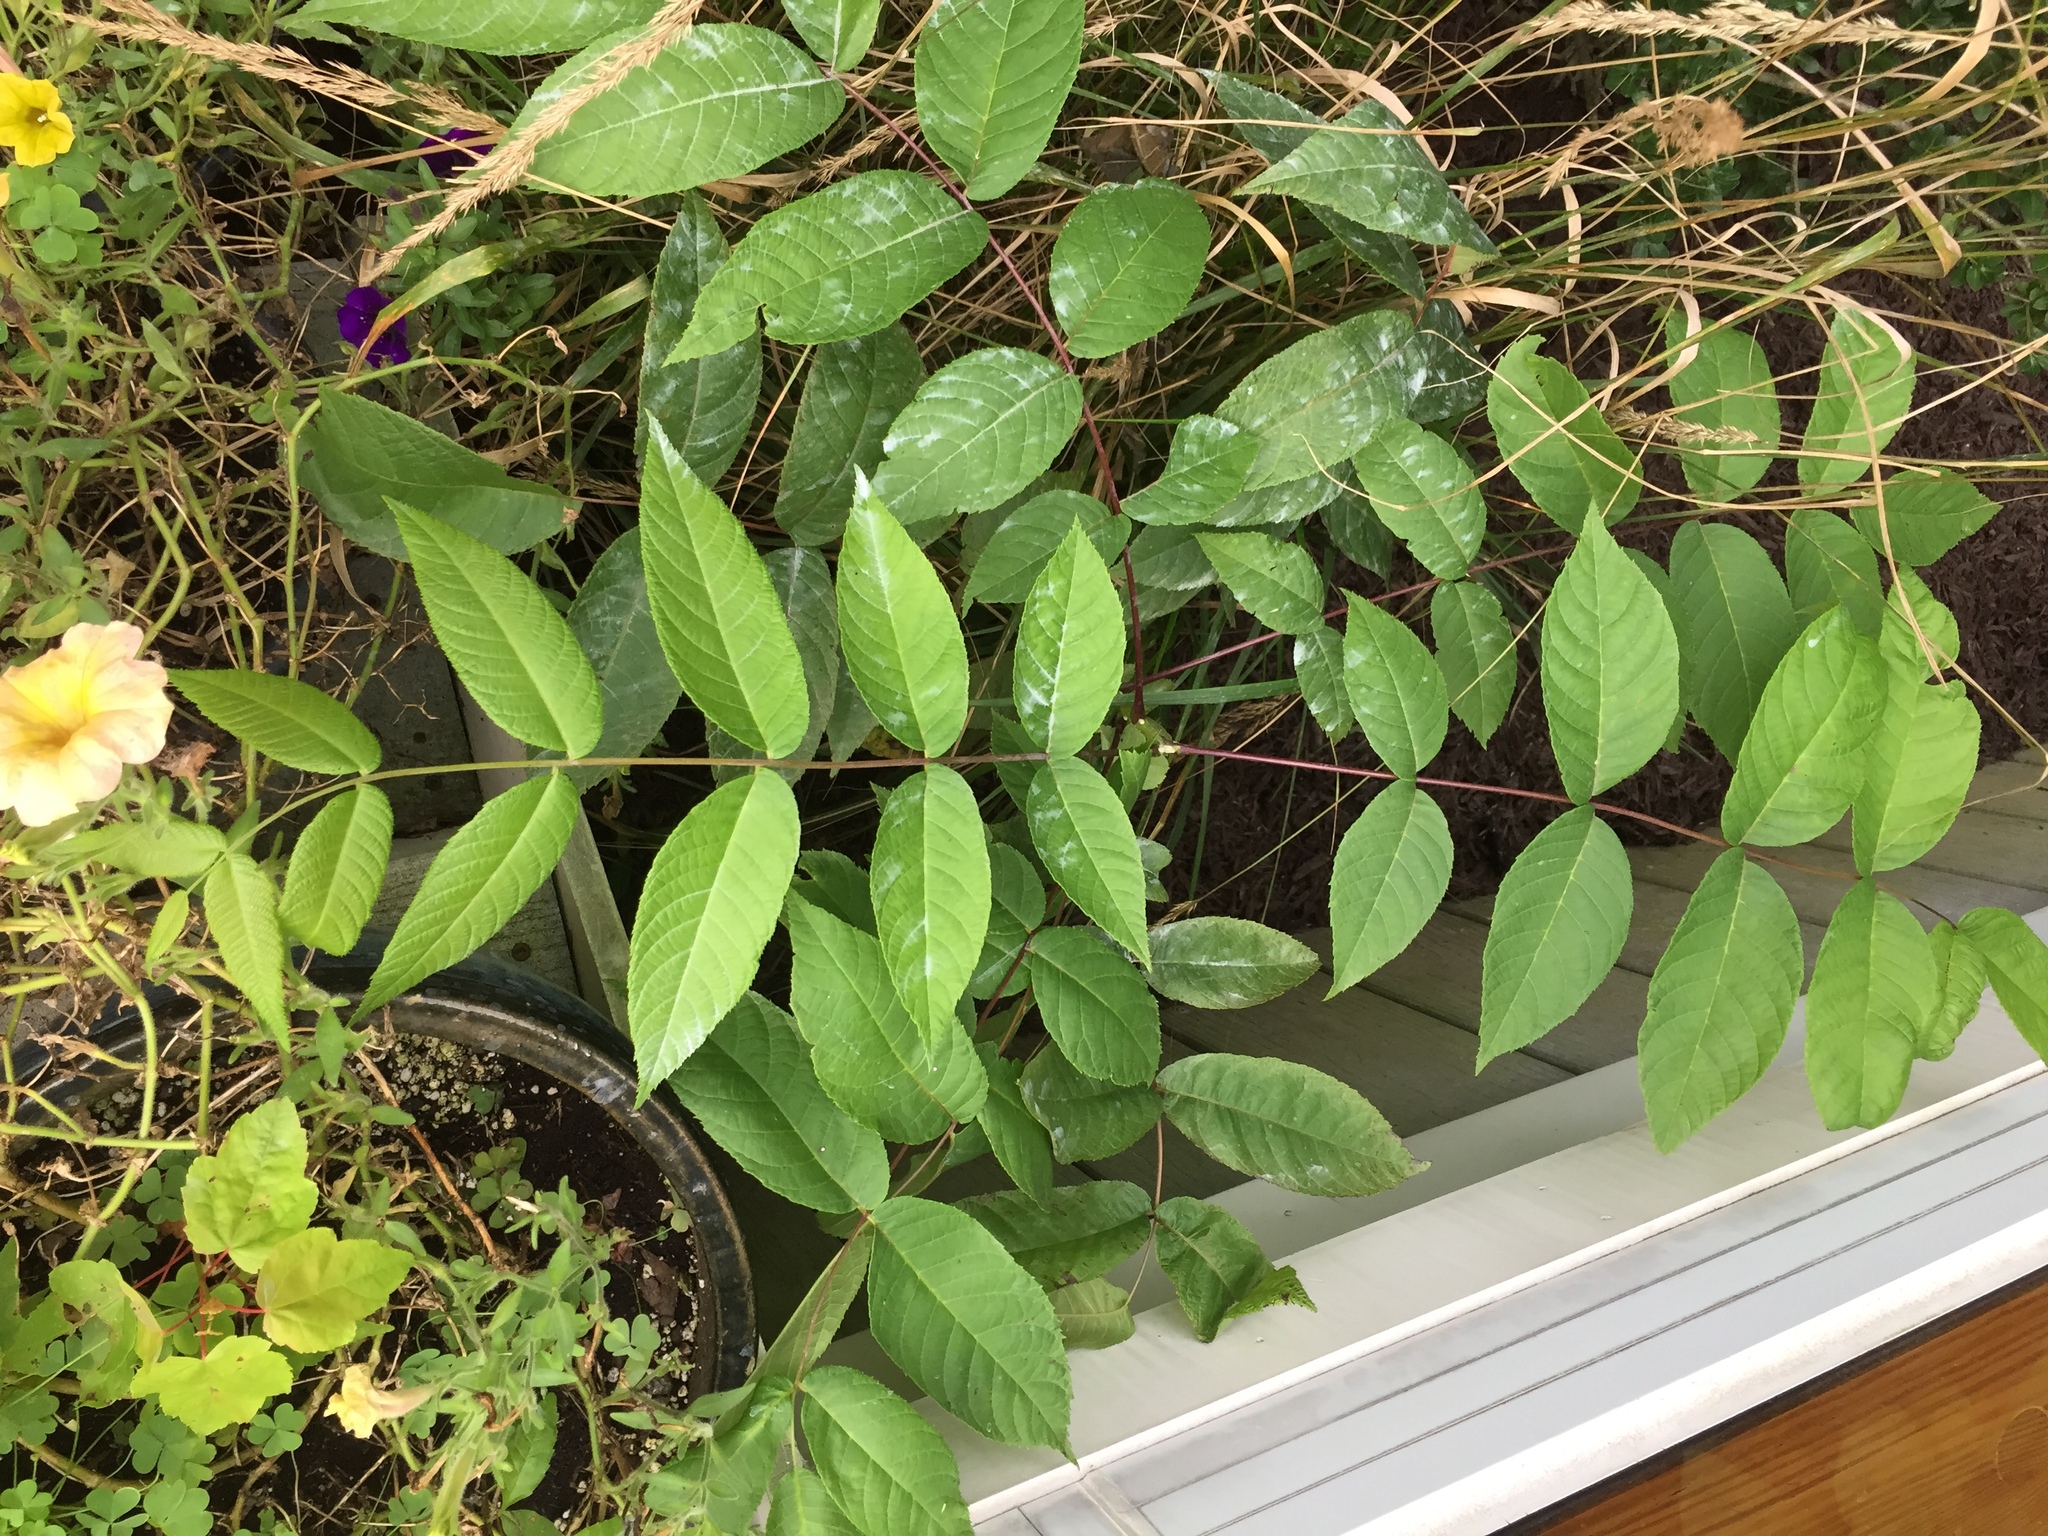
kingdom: Plantae
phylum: Tracheophyta
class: Magnoliopsida
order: Fagales
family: Juglandaceae
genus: Juglans
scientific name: Juglans nigra
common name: Black walnut
